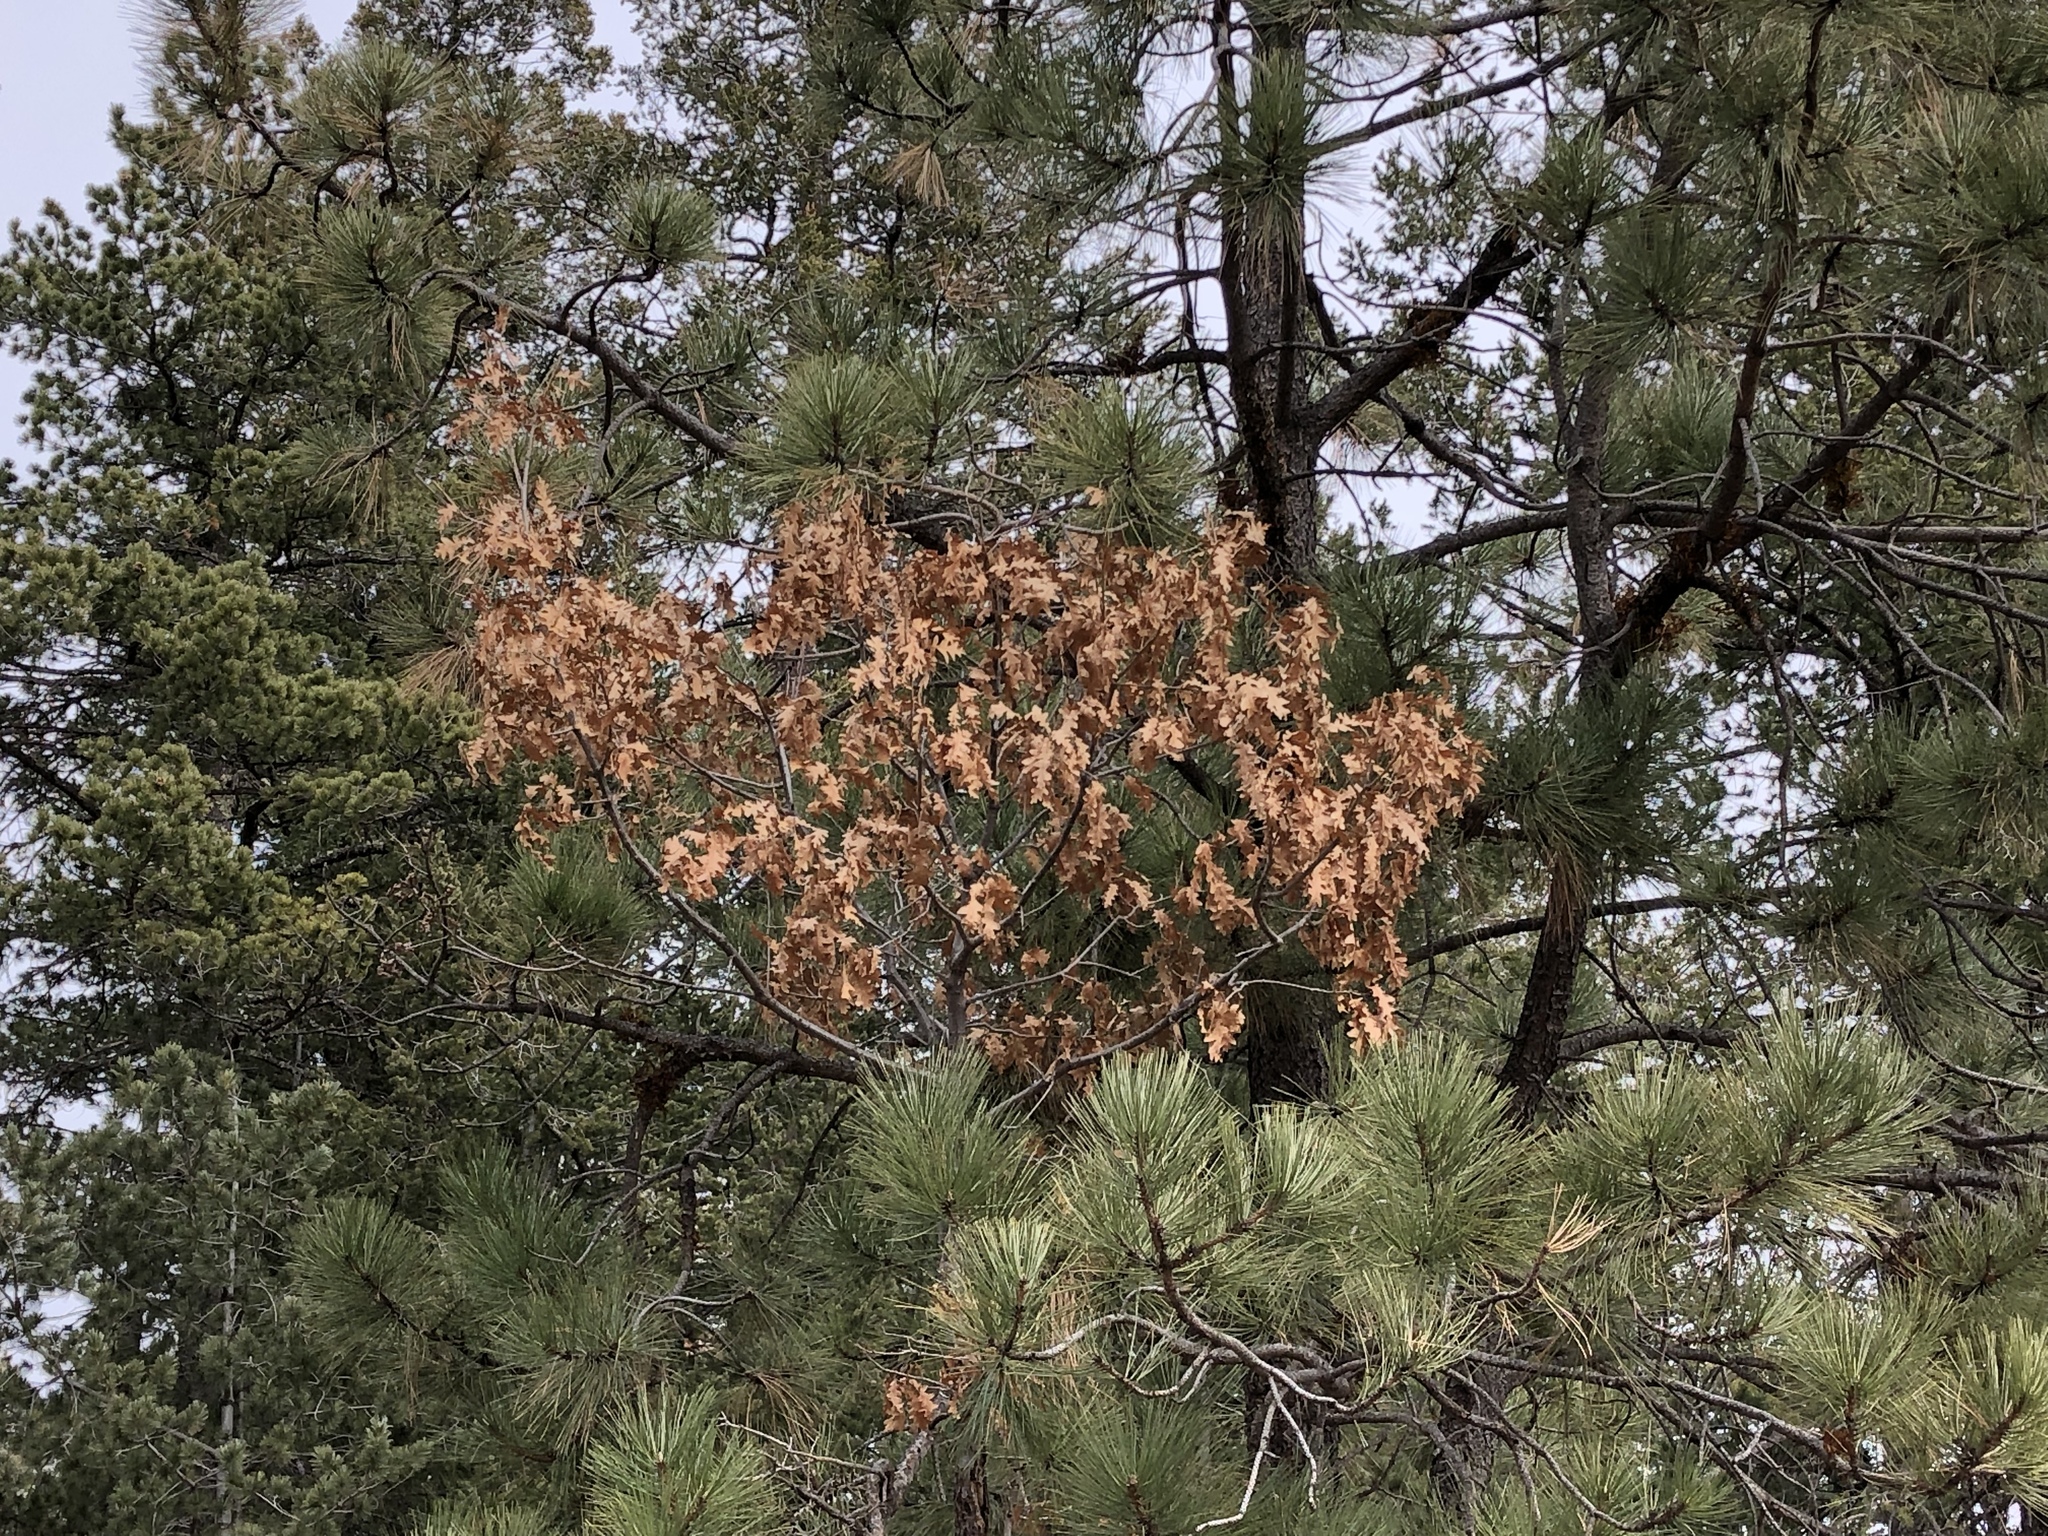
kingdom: Plantae
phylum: Tracheophyta
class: Magnoliopsida
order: Fagales
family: Fagaceae
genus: Quercus
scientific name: Quercus gambelii
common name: Gambel oak
